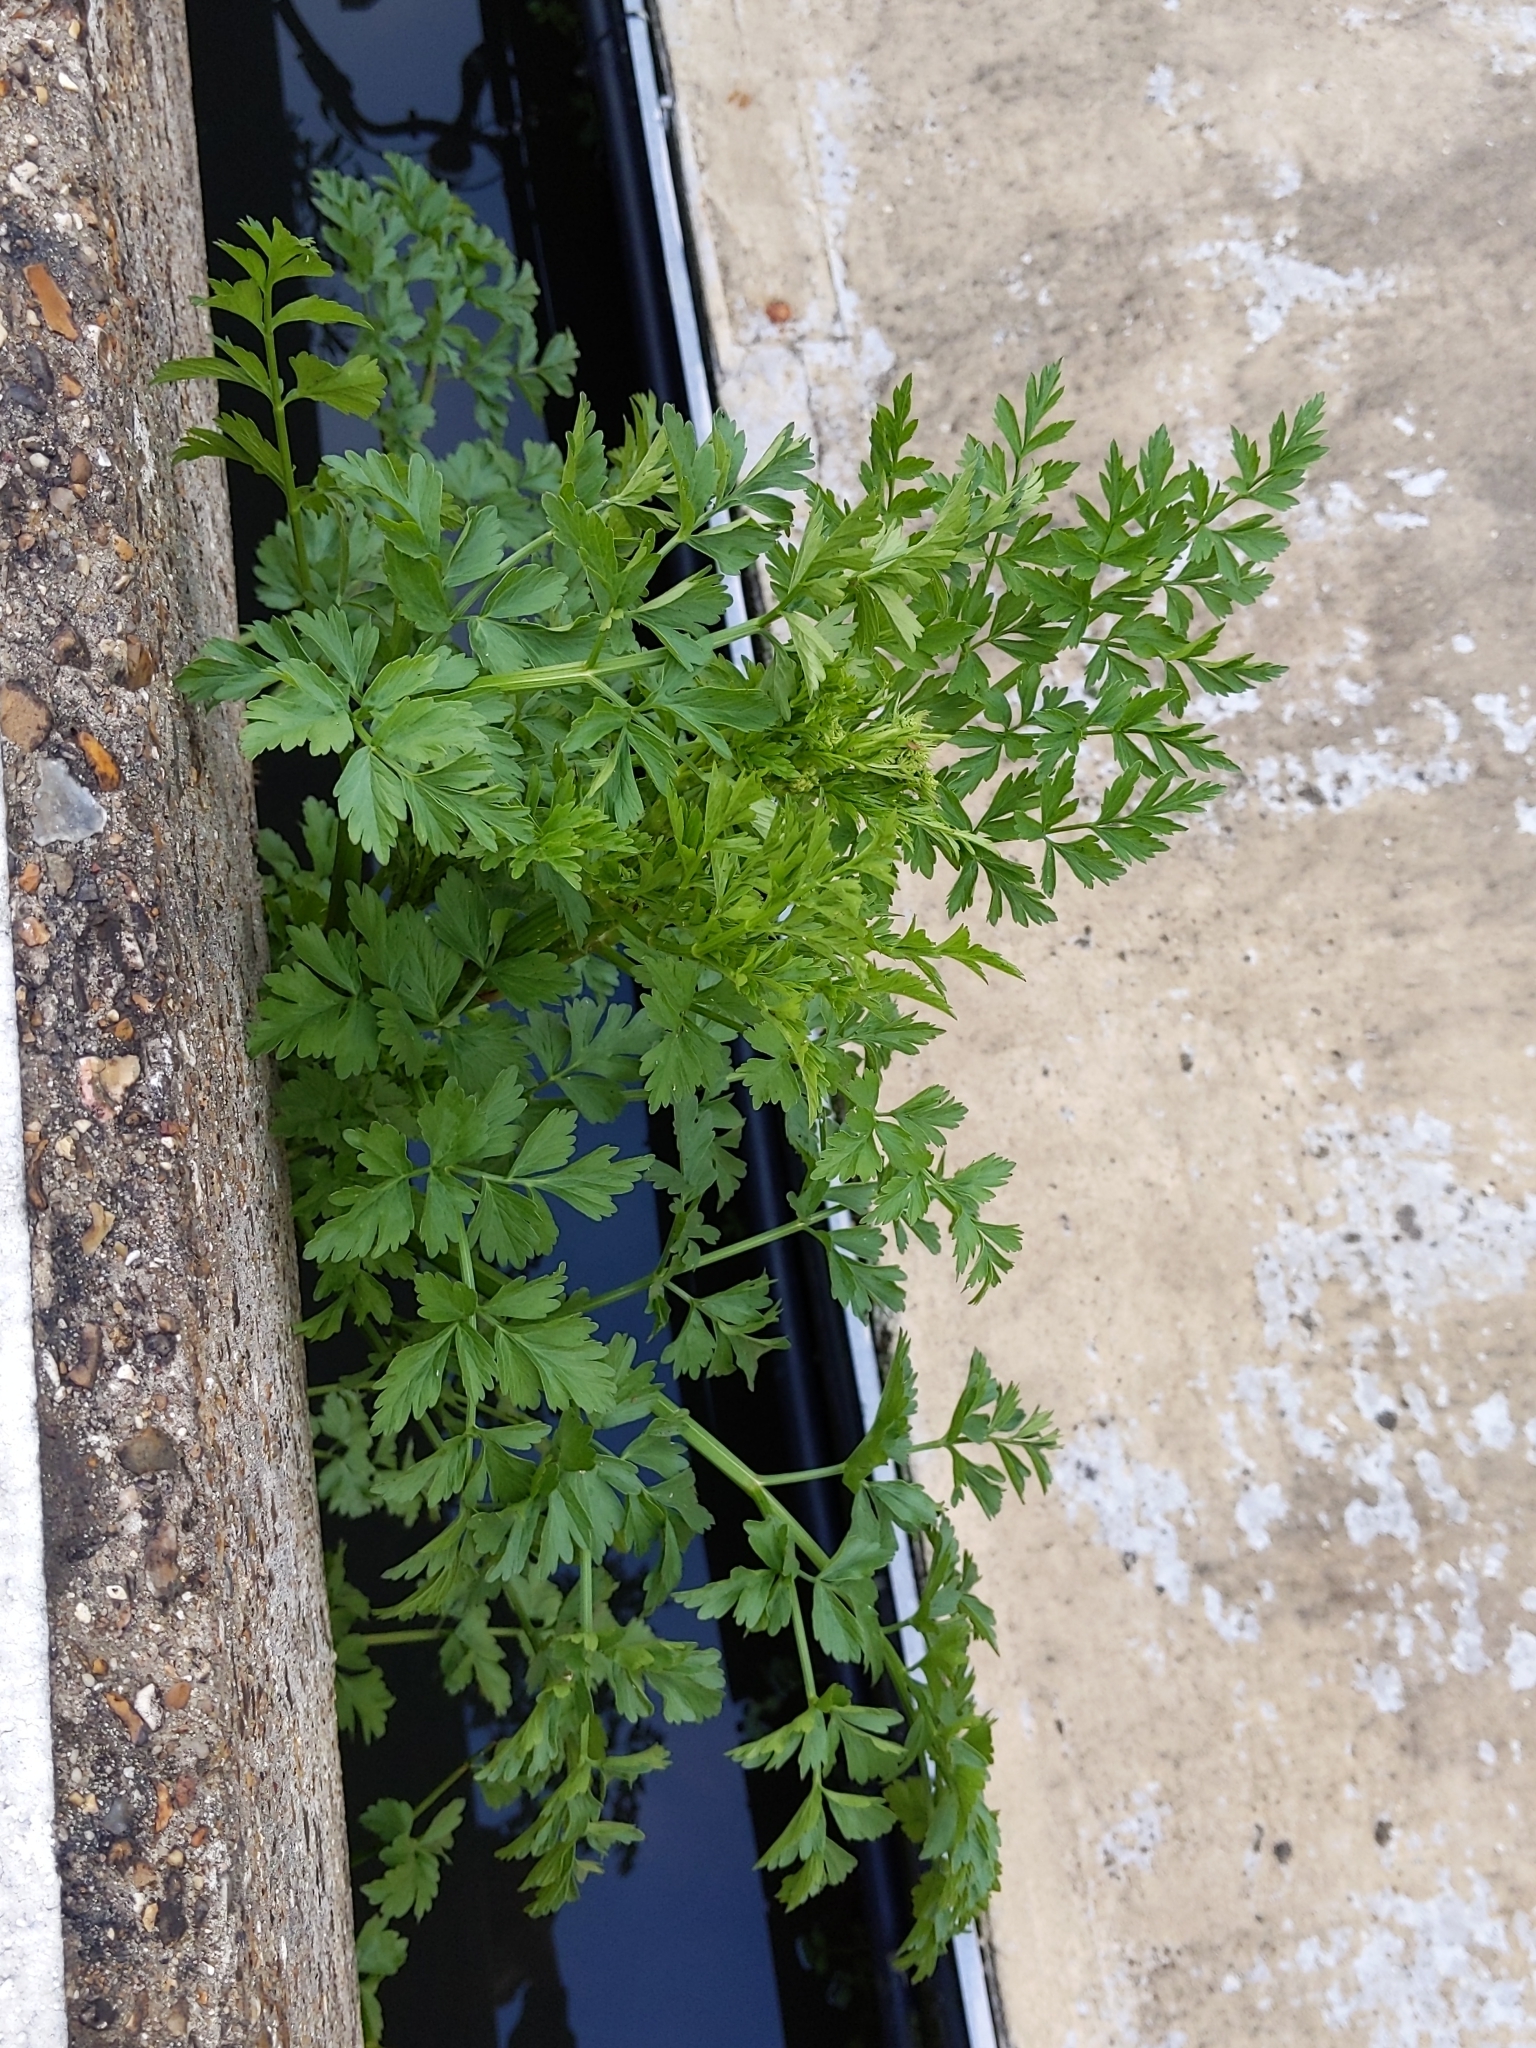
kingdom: Plantae
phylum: Tracheophyta
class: Magnoliopsida
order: Apiales
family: Apiaceae
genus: Oenanthe
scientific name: Oenanthe crocata
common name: Hemlock water-dropwort
